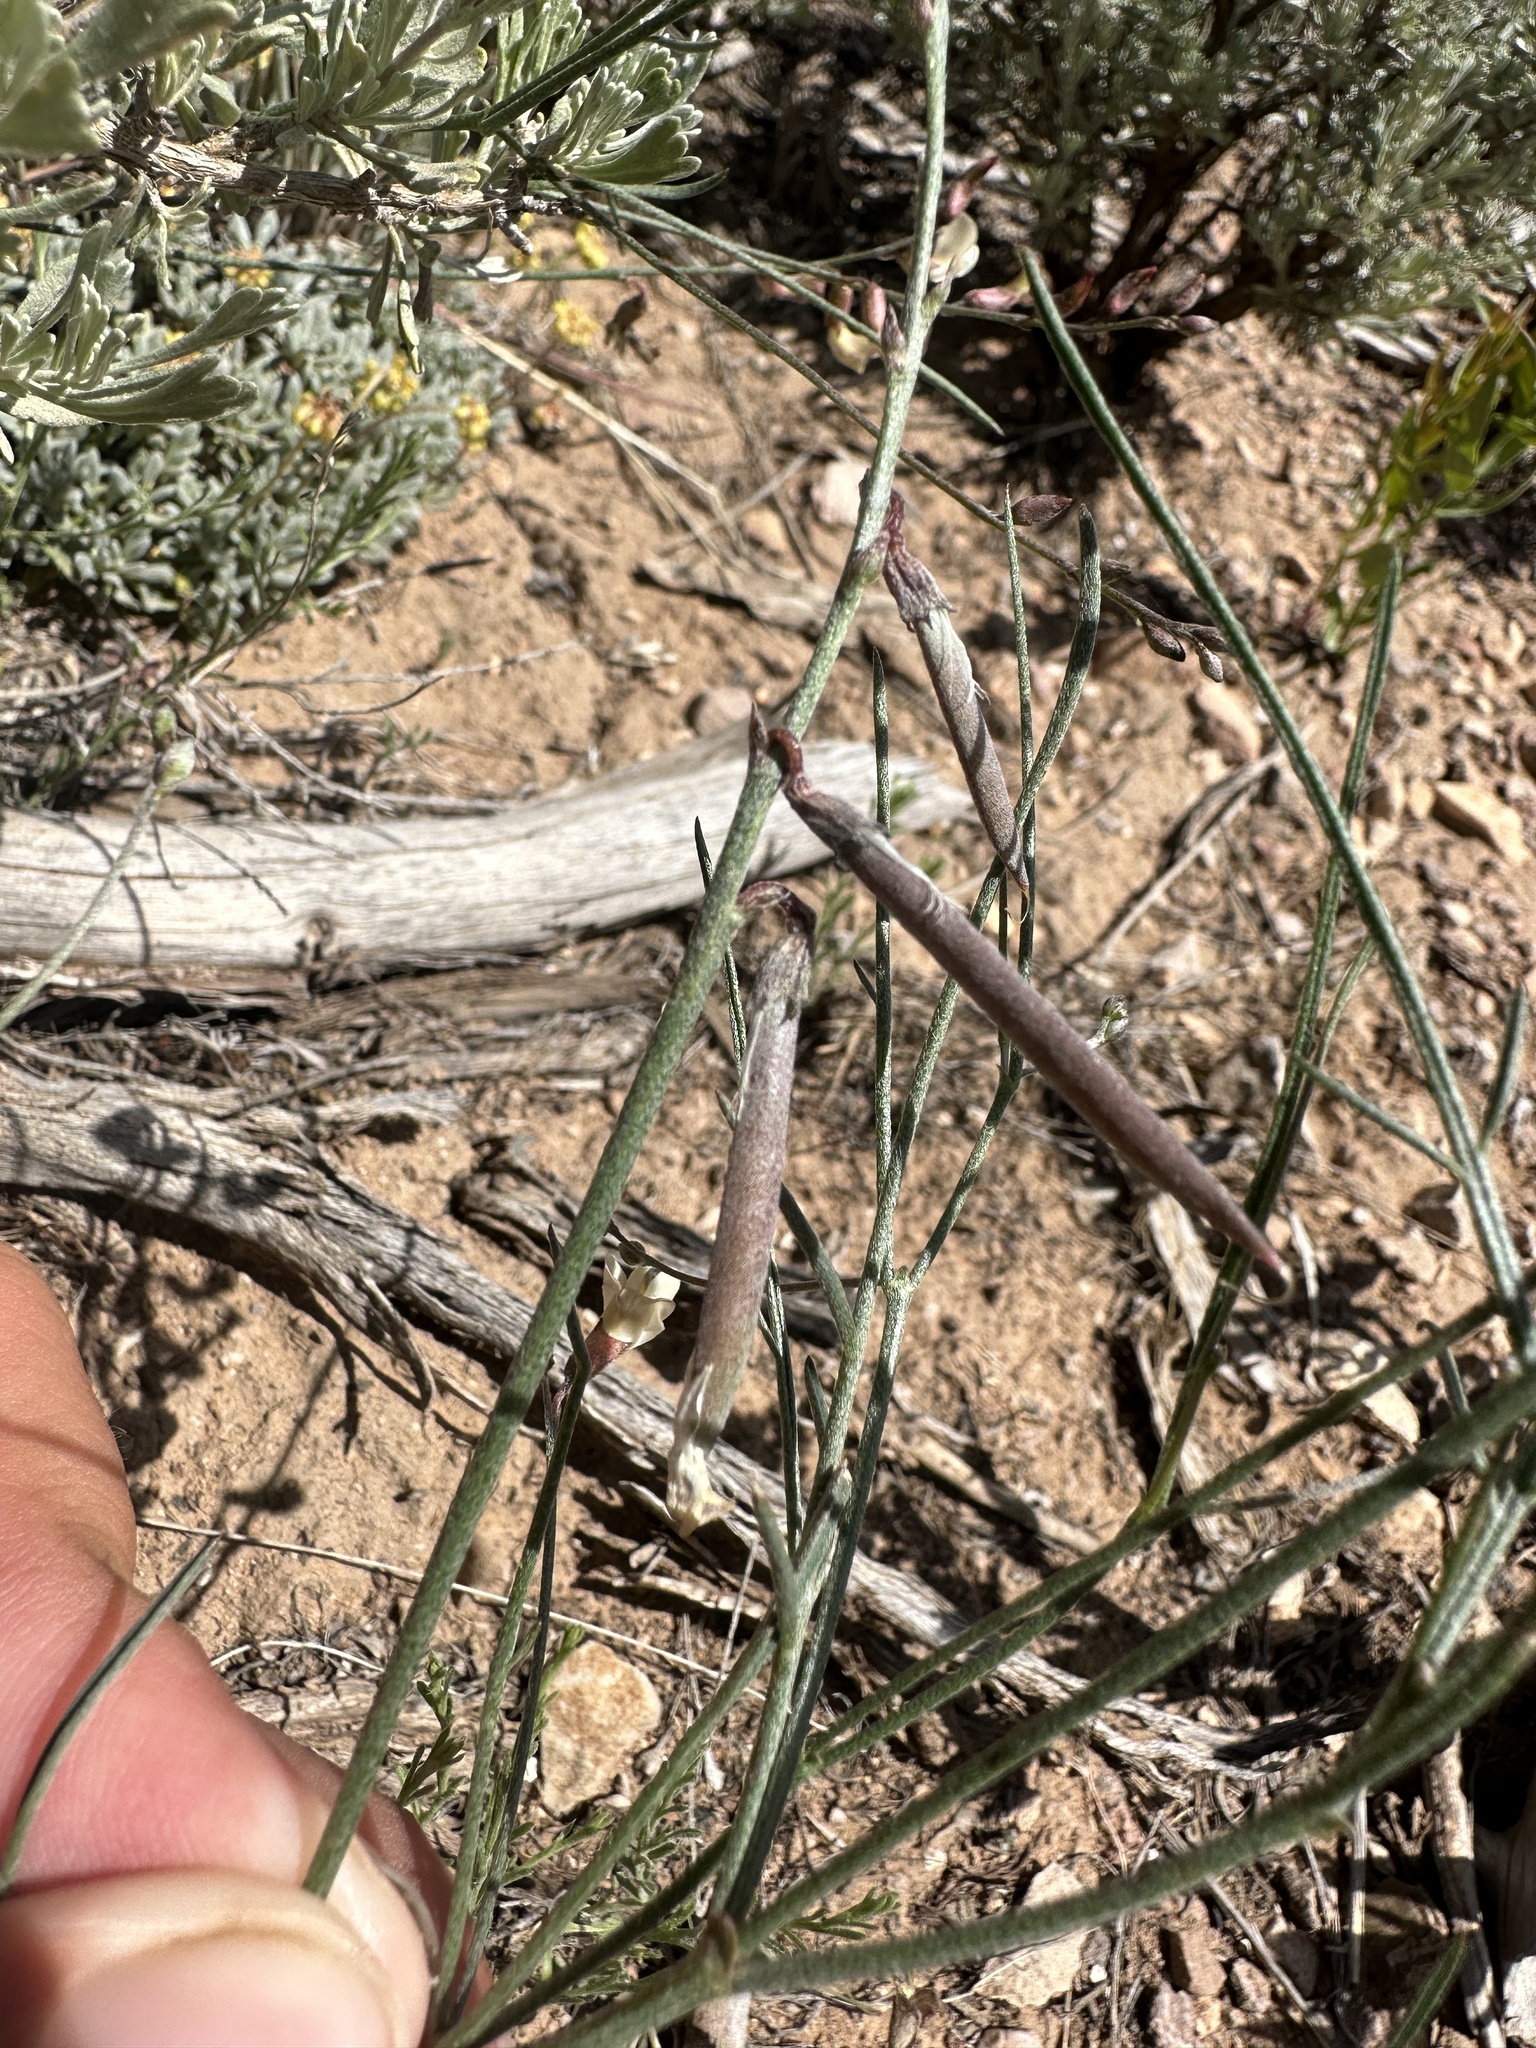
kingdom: Plantae
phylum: Tracheophyta
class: Magnoliopsida
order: Fabales
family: Fabaceae
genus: Astragalus
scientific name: Astragalus convallarius
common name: Lesser rushy milk-vetch
